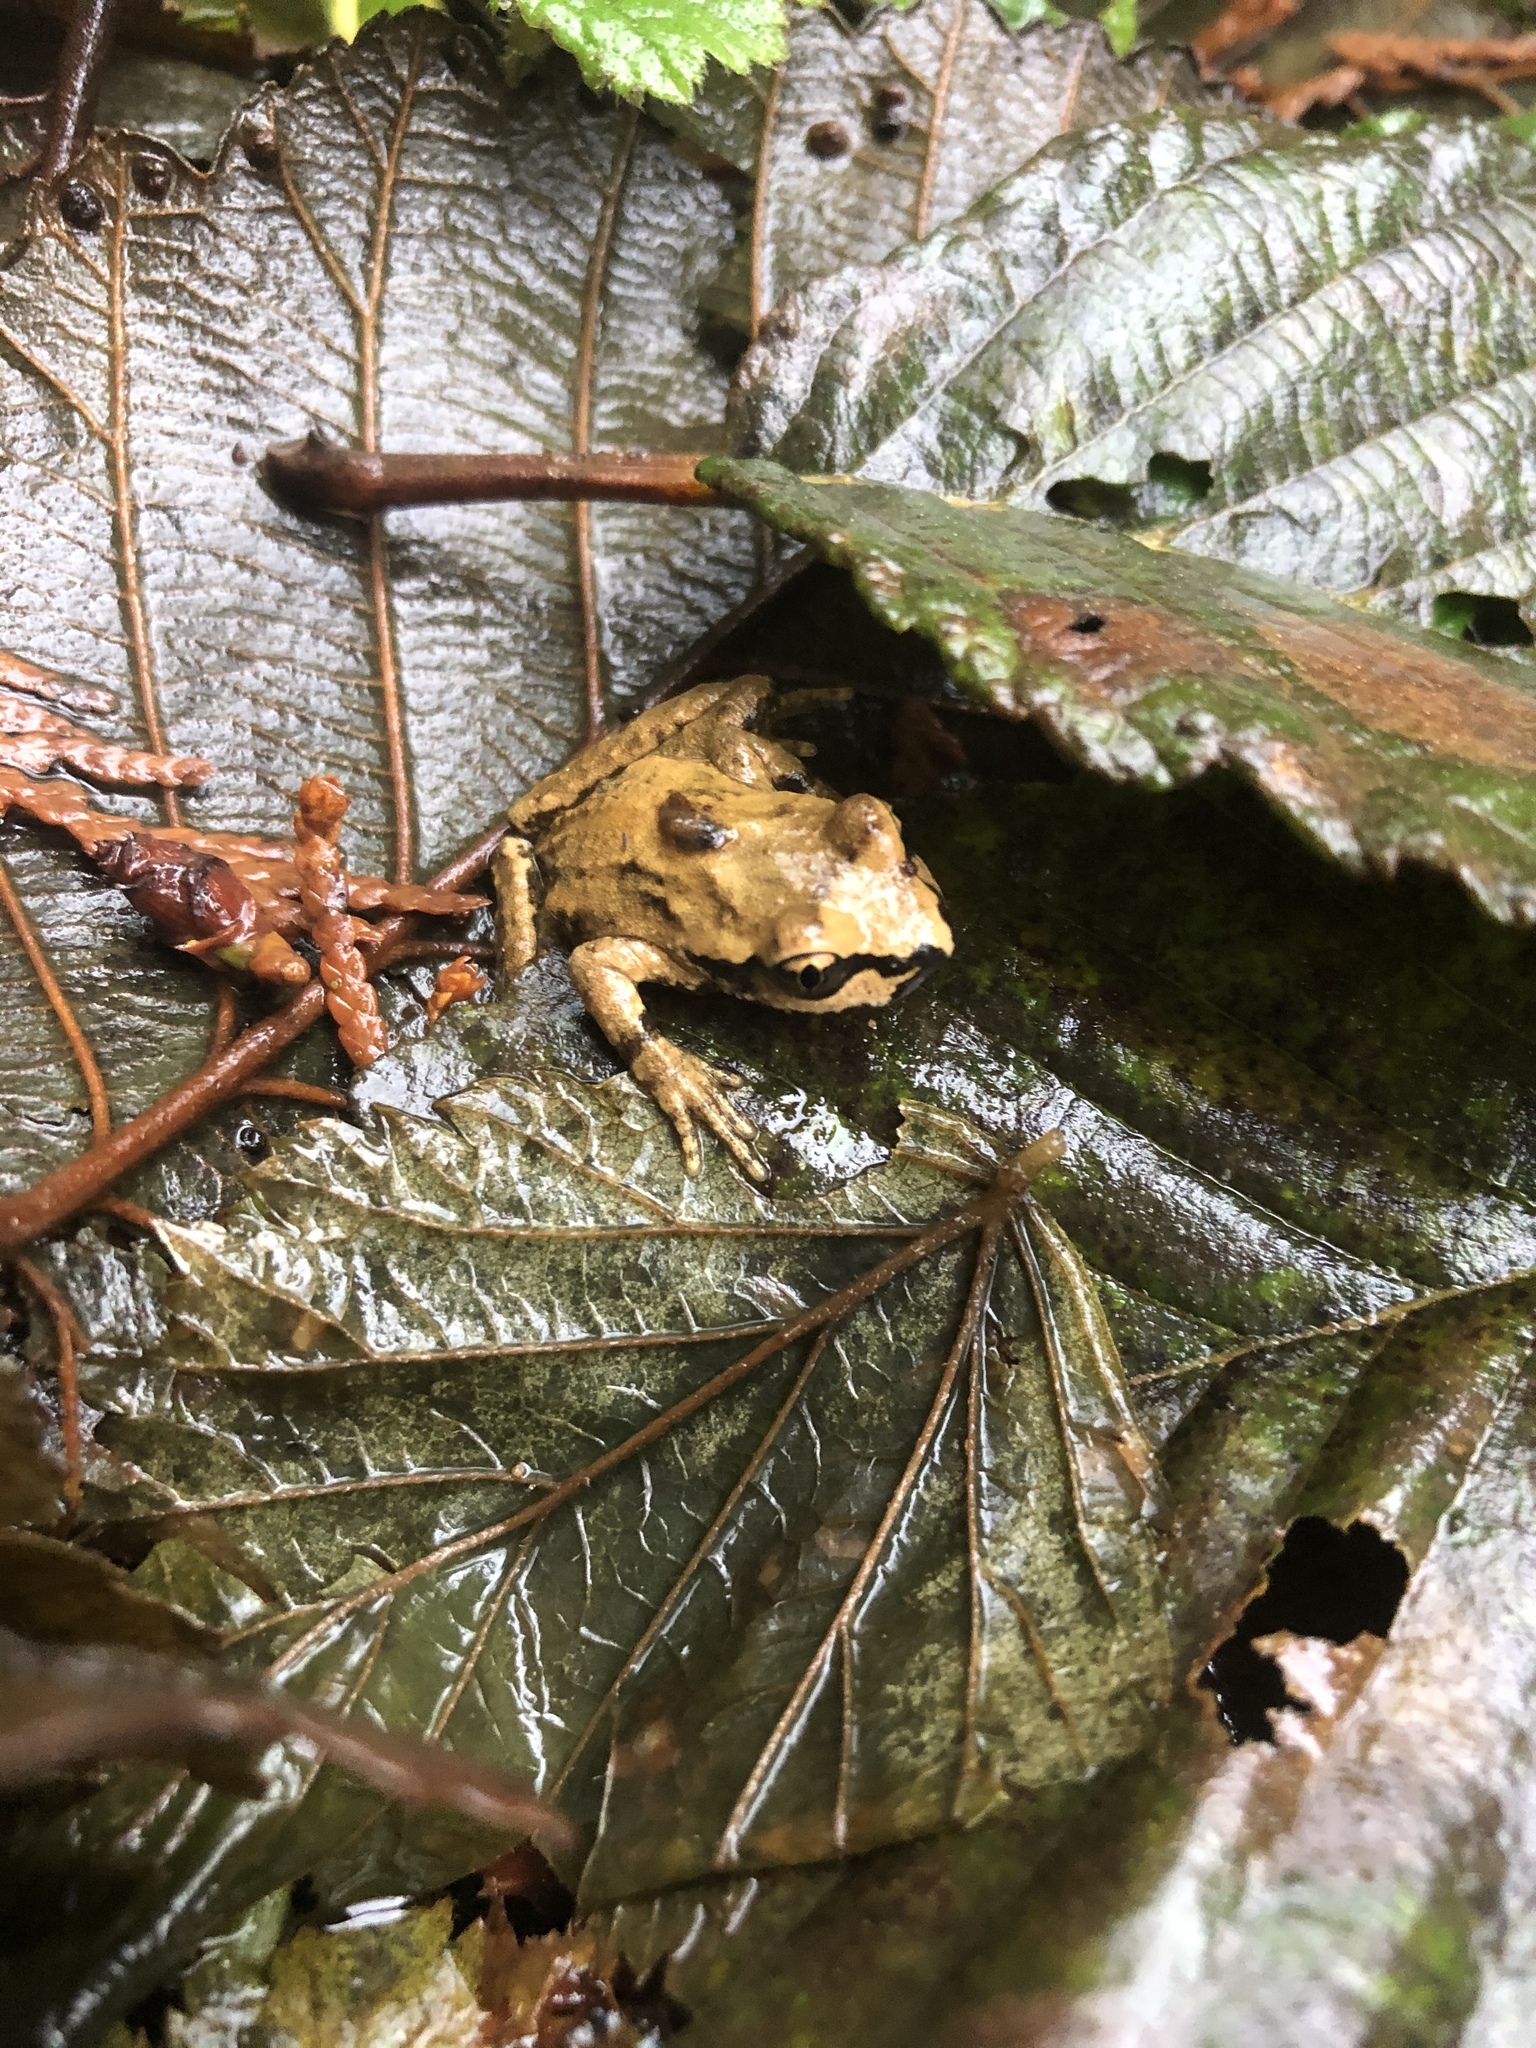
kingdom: Animalia
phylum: Chordata
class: Amphibia
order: Anura
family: Ascaphidae
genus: Ascaphus
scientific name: Ascaphus truei
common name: Tailed frog
